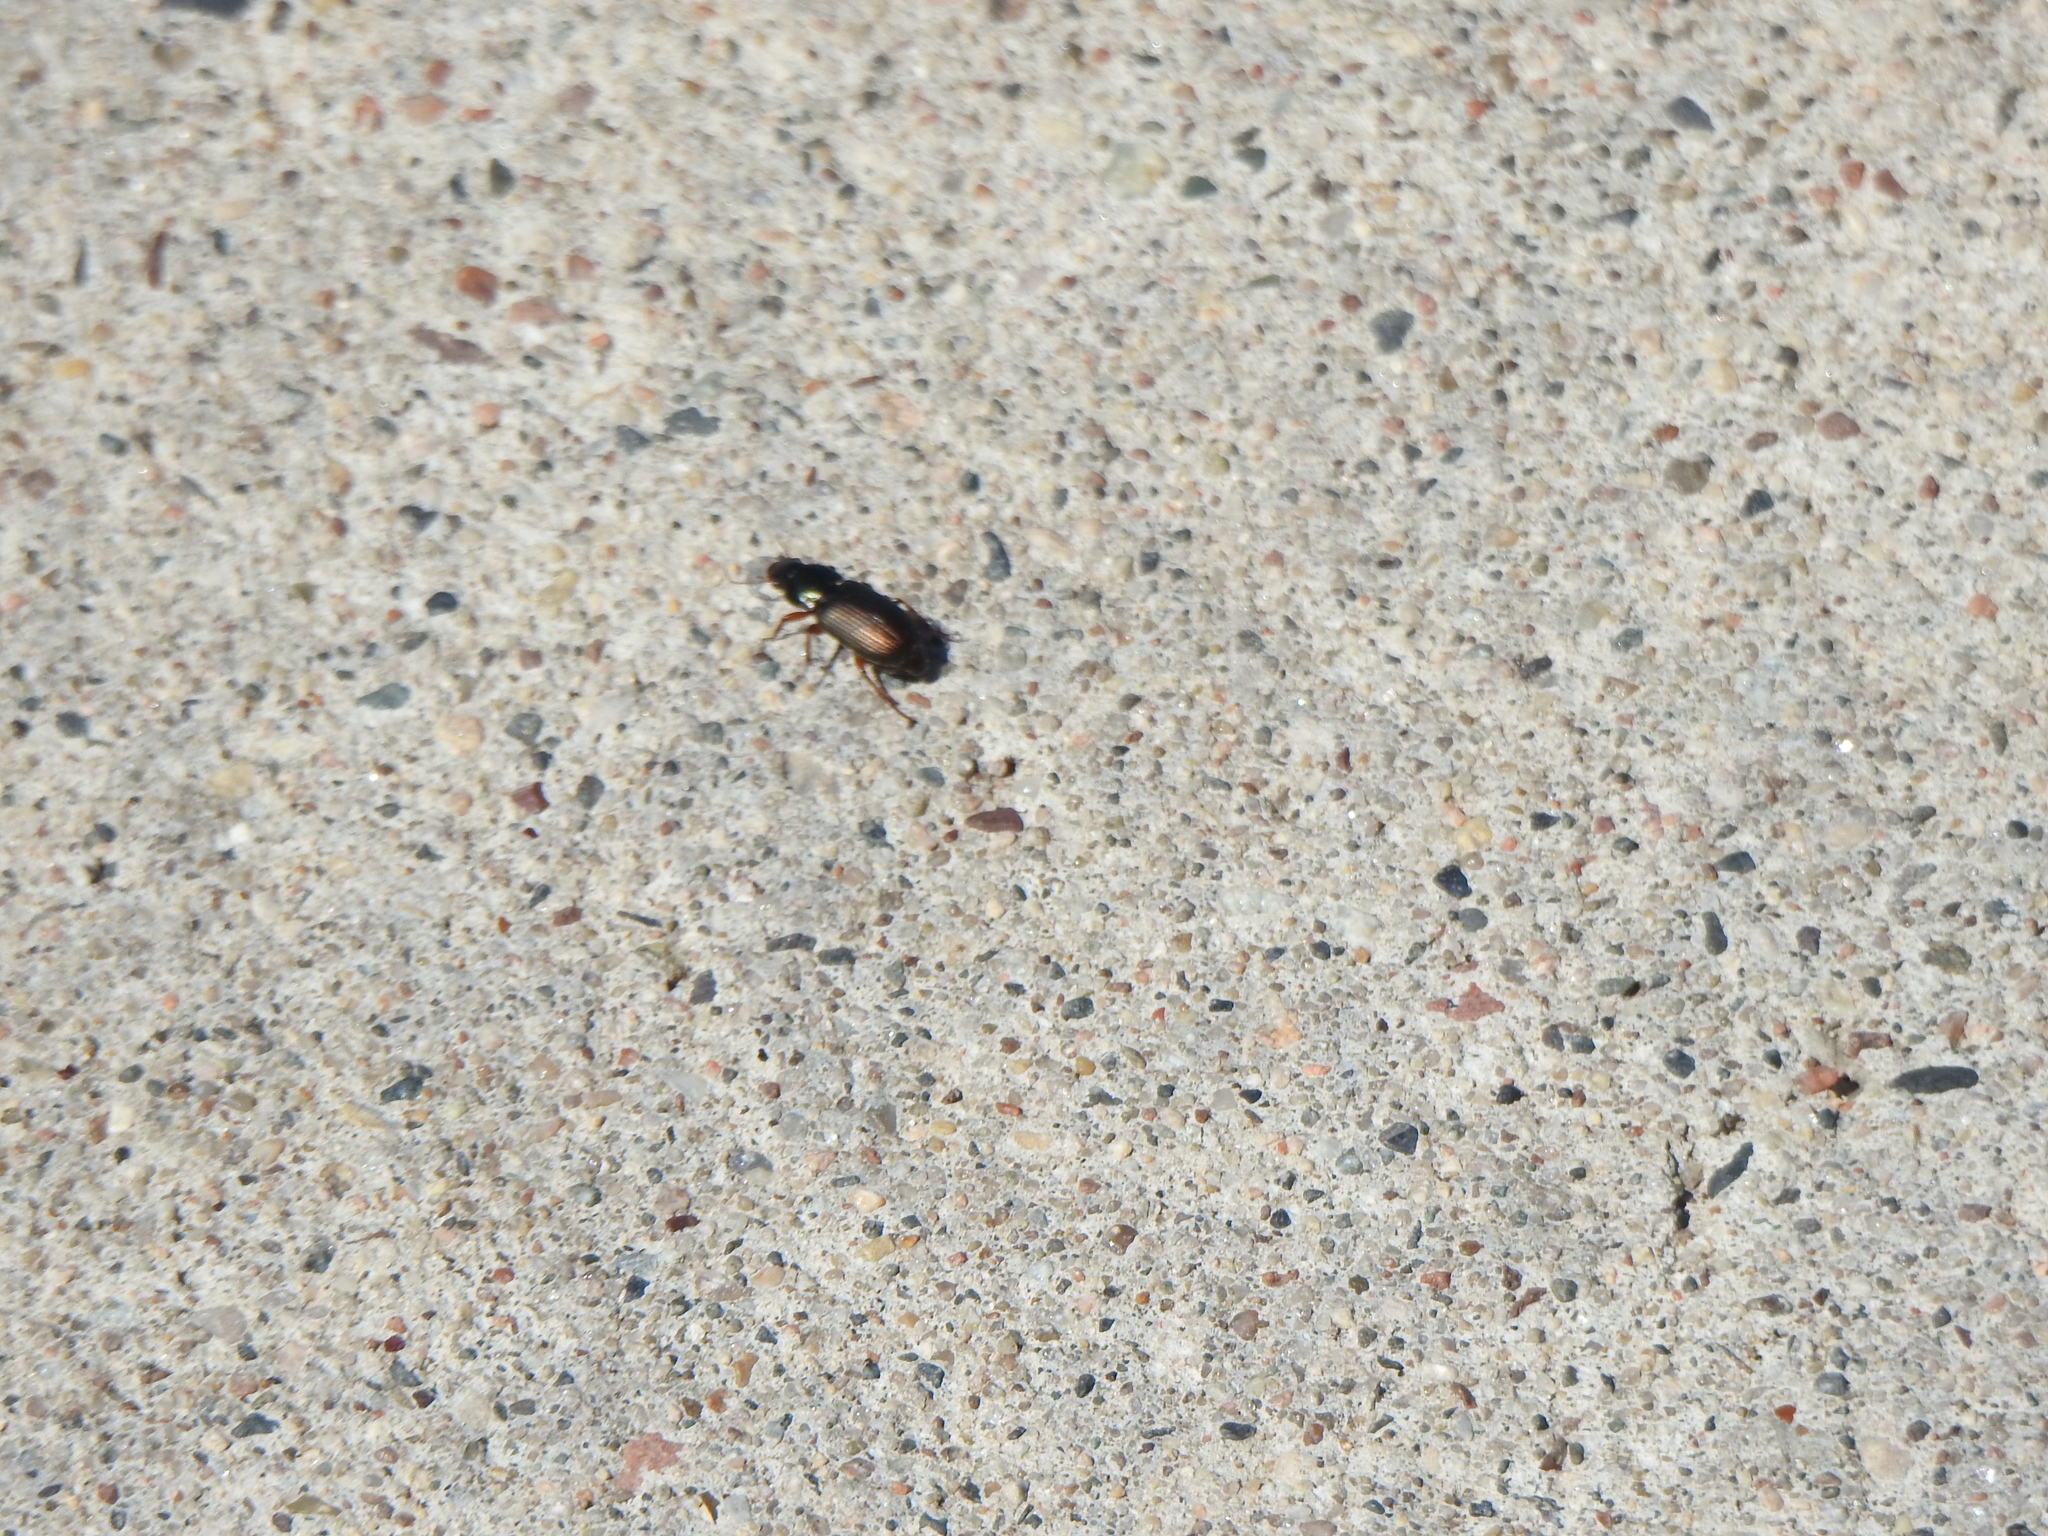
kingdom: Animalia
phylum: Arthropoda
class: Insecta
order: Coleoptera
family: Carabidae
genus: Harpalus
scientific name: Harpalus affinis
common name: Polychrome harp ground beetle
